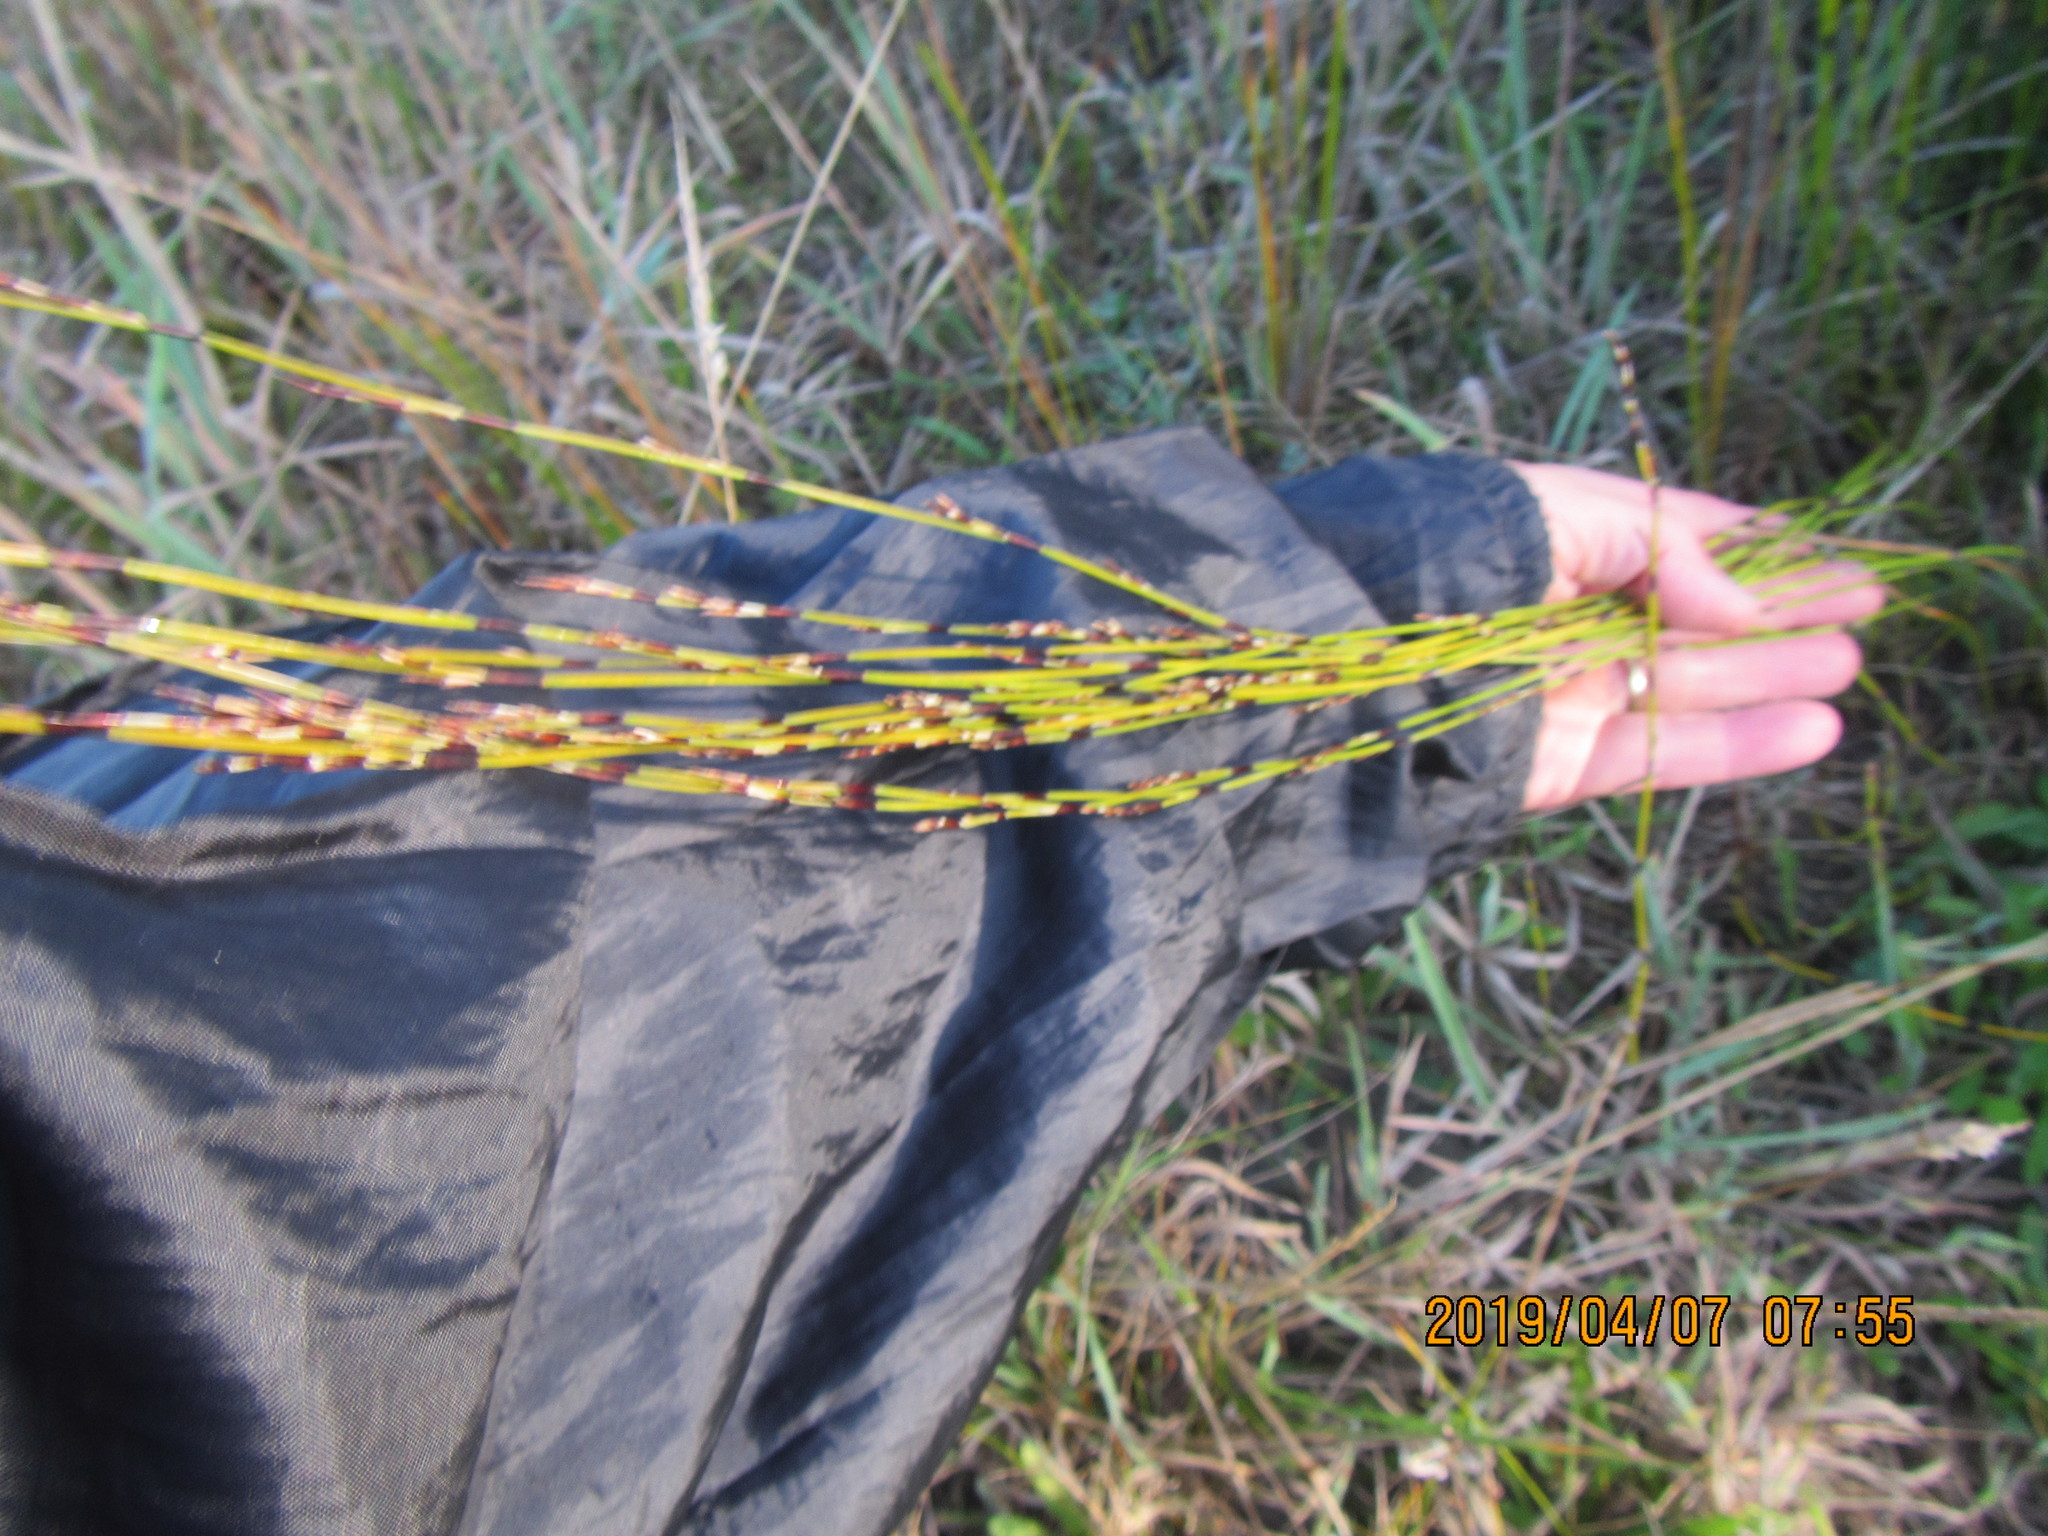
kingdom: Plantae
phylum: Tracheophyta
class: Liliopsida
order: Poales
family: Restionaceae
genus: Apodasmia
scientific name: Apodasmia similis
